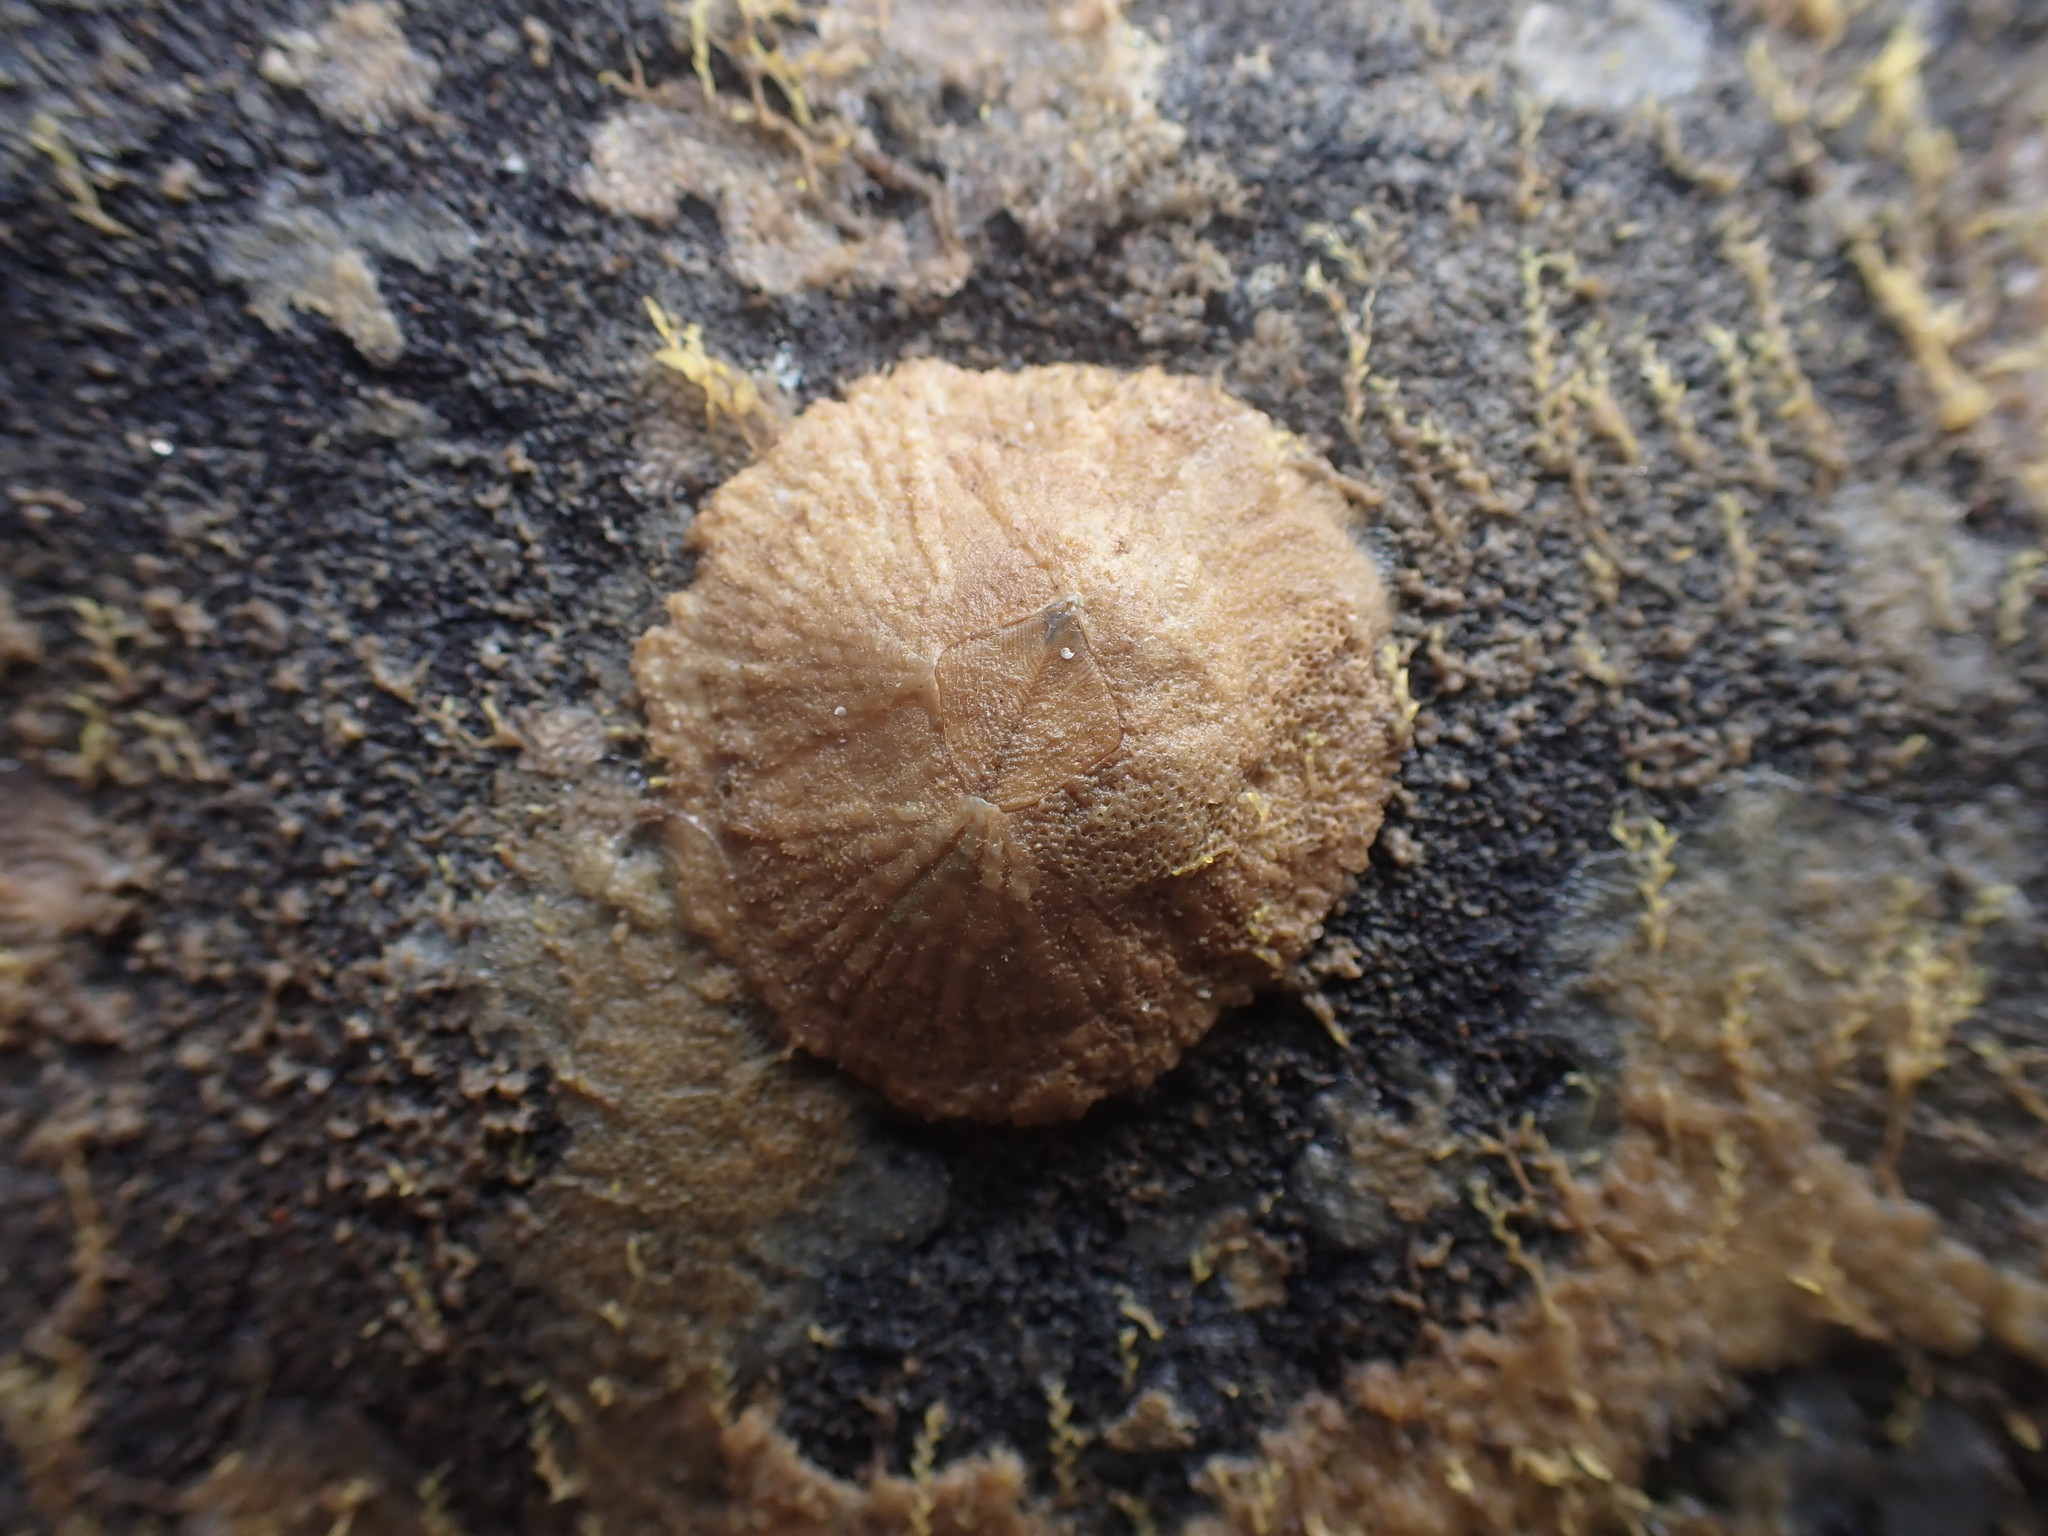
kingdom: Animalia
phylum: Arthropoda
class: Maxillopoda
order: Sessilia
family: Tetraclitidae
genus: Tetraclitella
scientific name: Tetraclitella depressa
